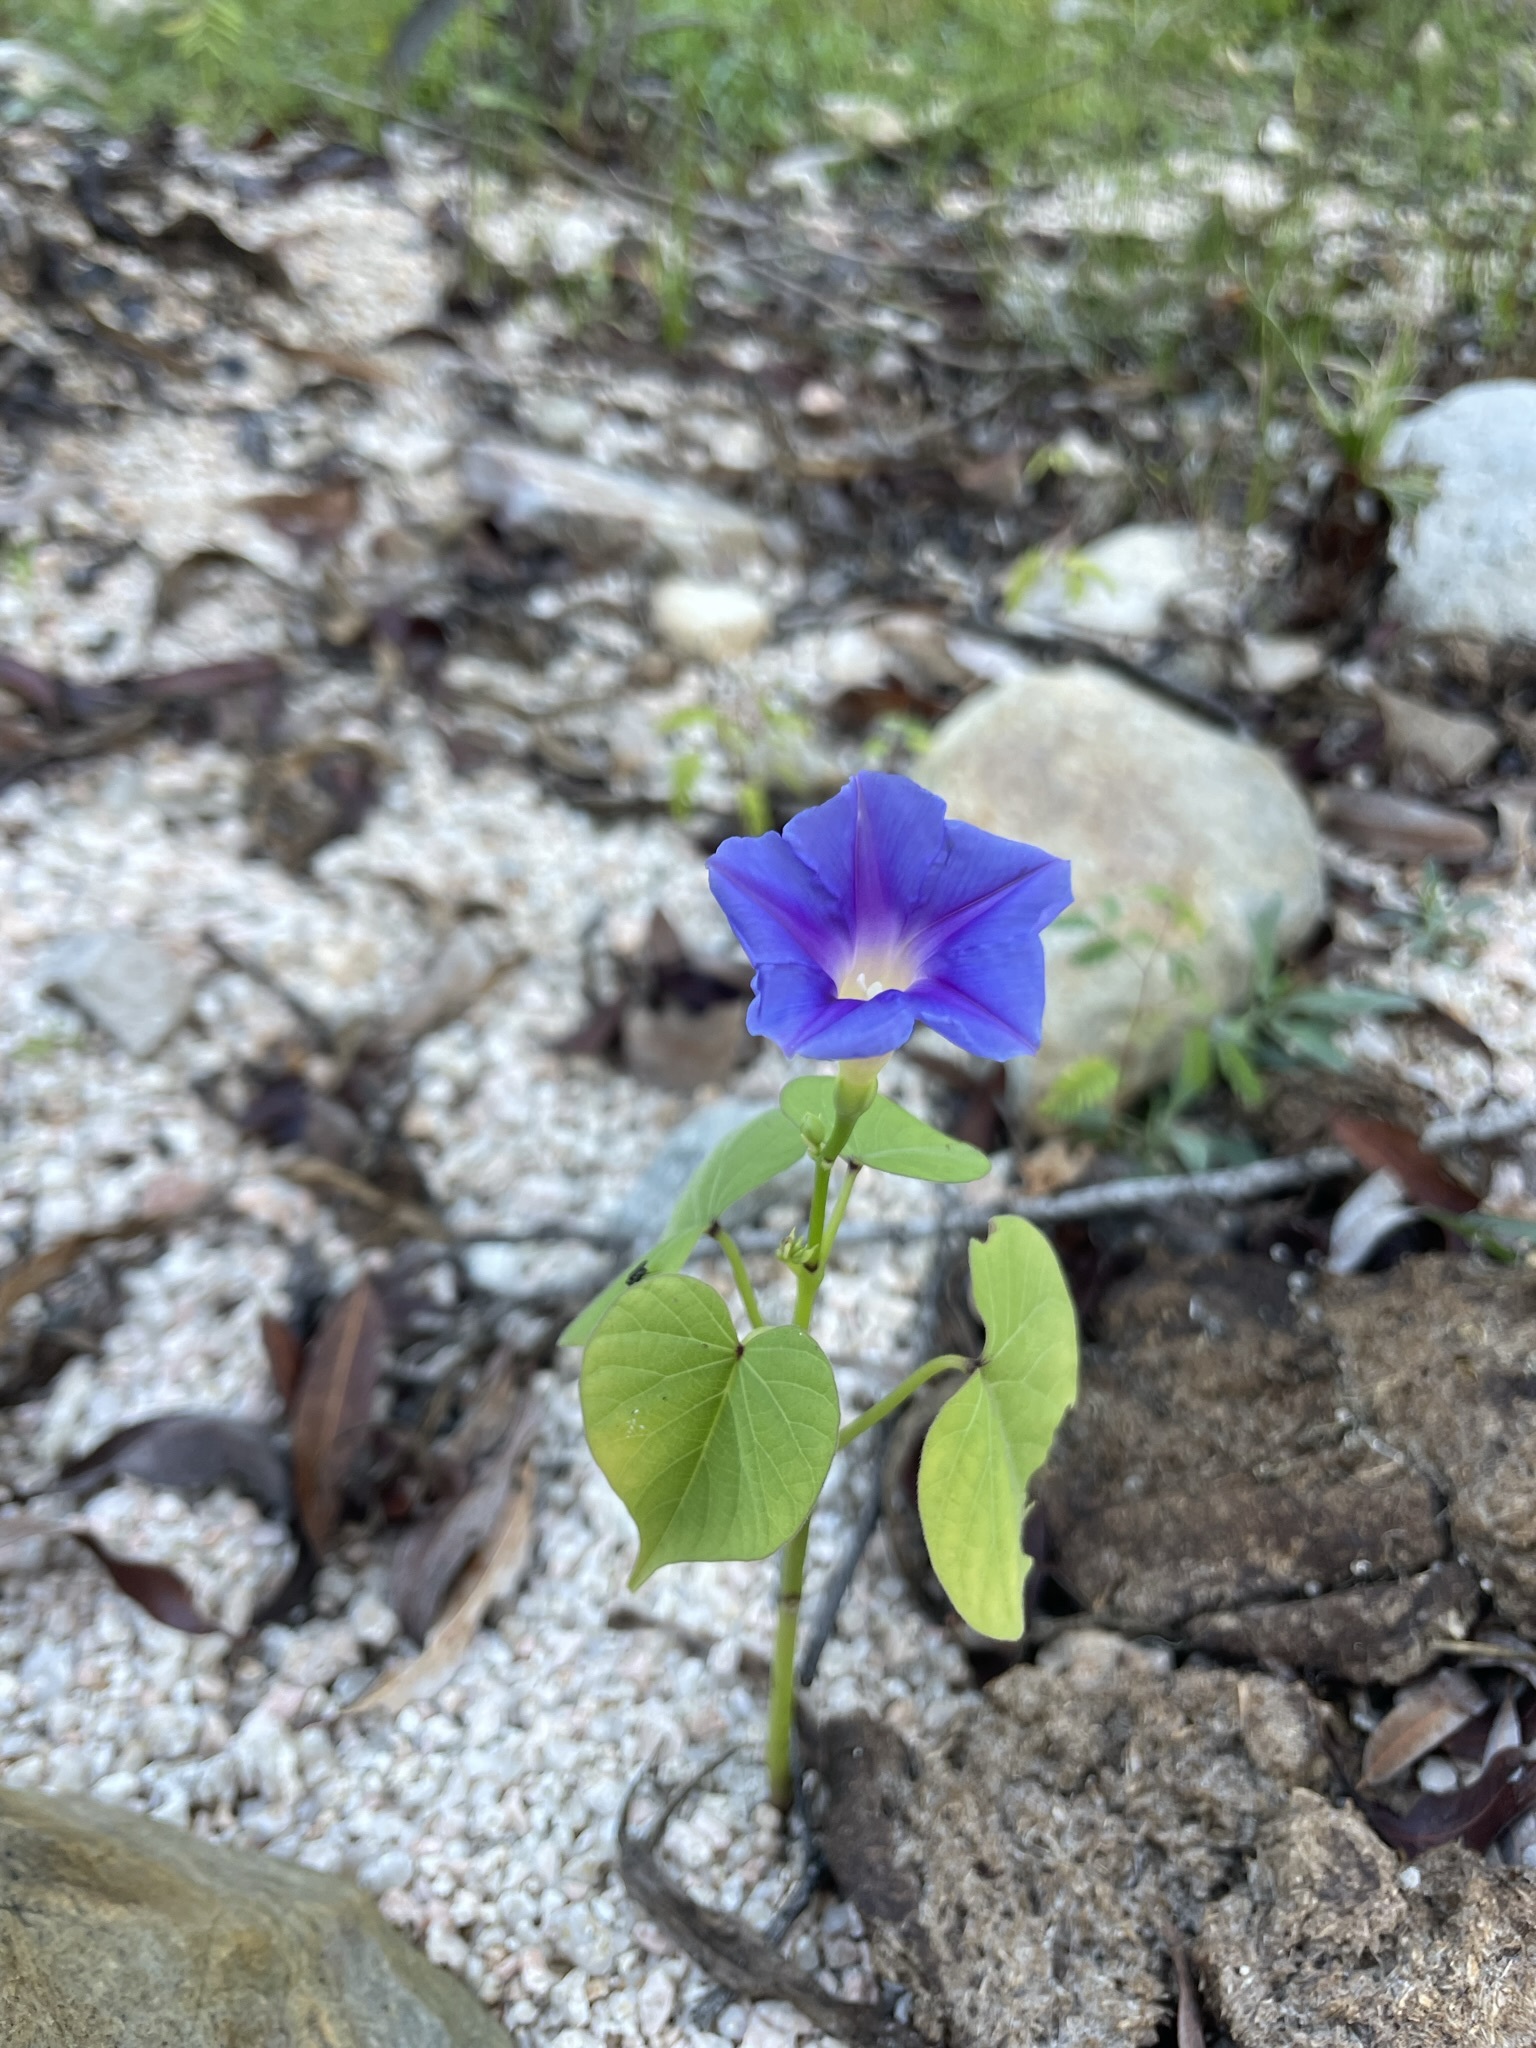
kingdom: Plantae
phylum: Tracheophyta
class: Magnoliopsida
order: Solanales
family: Convolvulaceae
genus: Ipomoea
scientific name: Ipomoea parasitica
